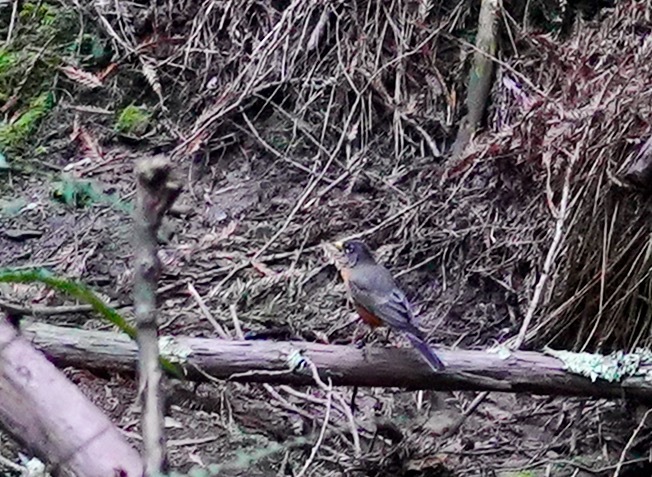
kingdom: Animalia
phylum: Chordata
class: Aves
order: Passeriformes
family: Turdidae
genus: Turdus
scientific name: Turdus migratorius
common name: American robin
